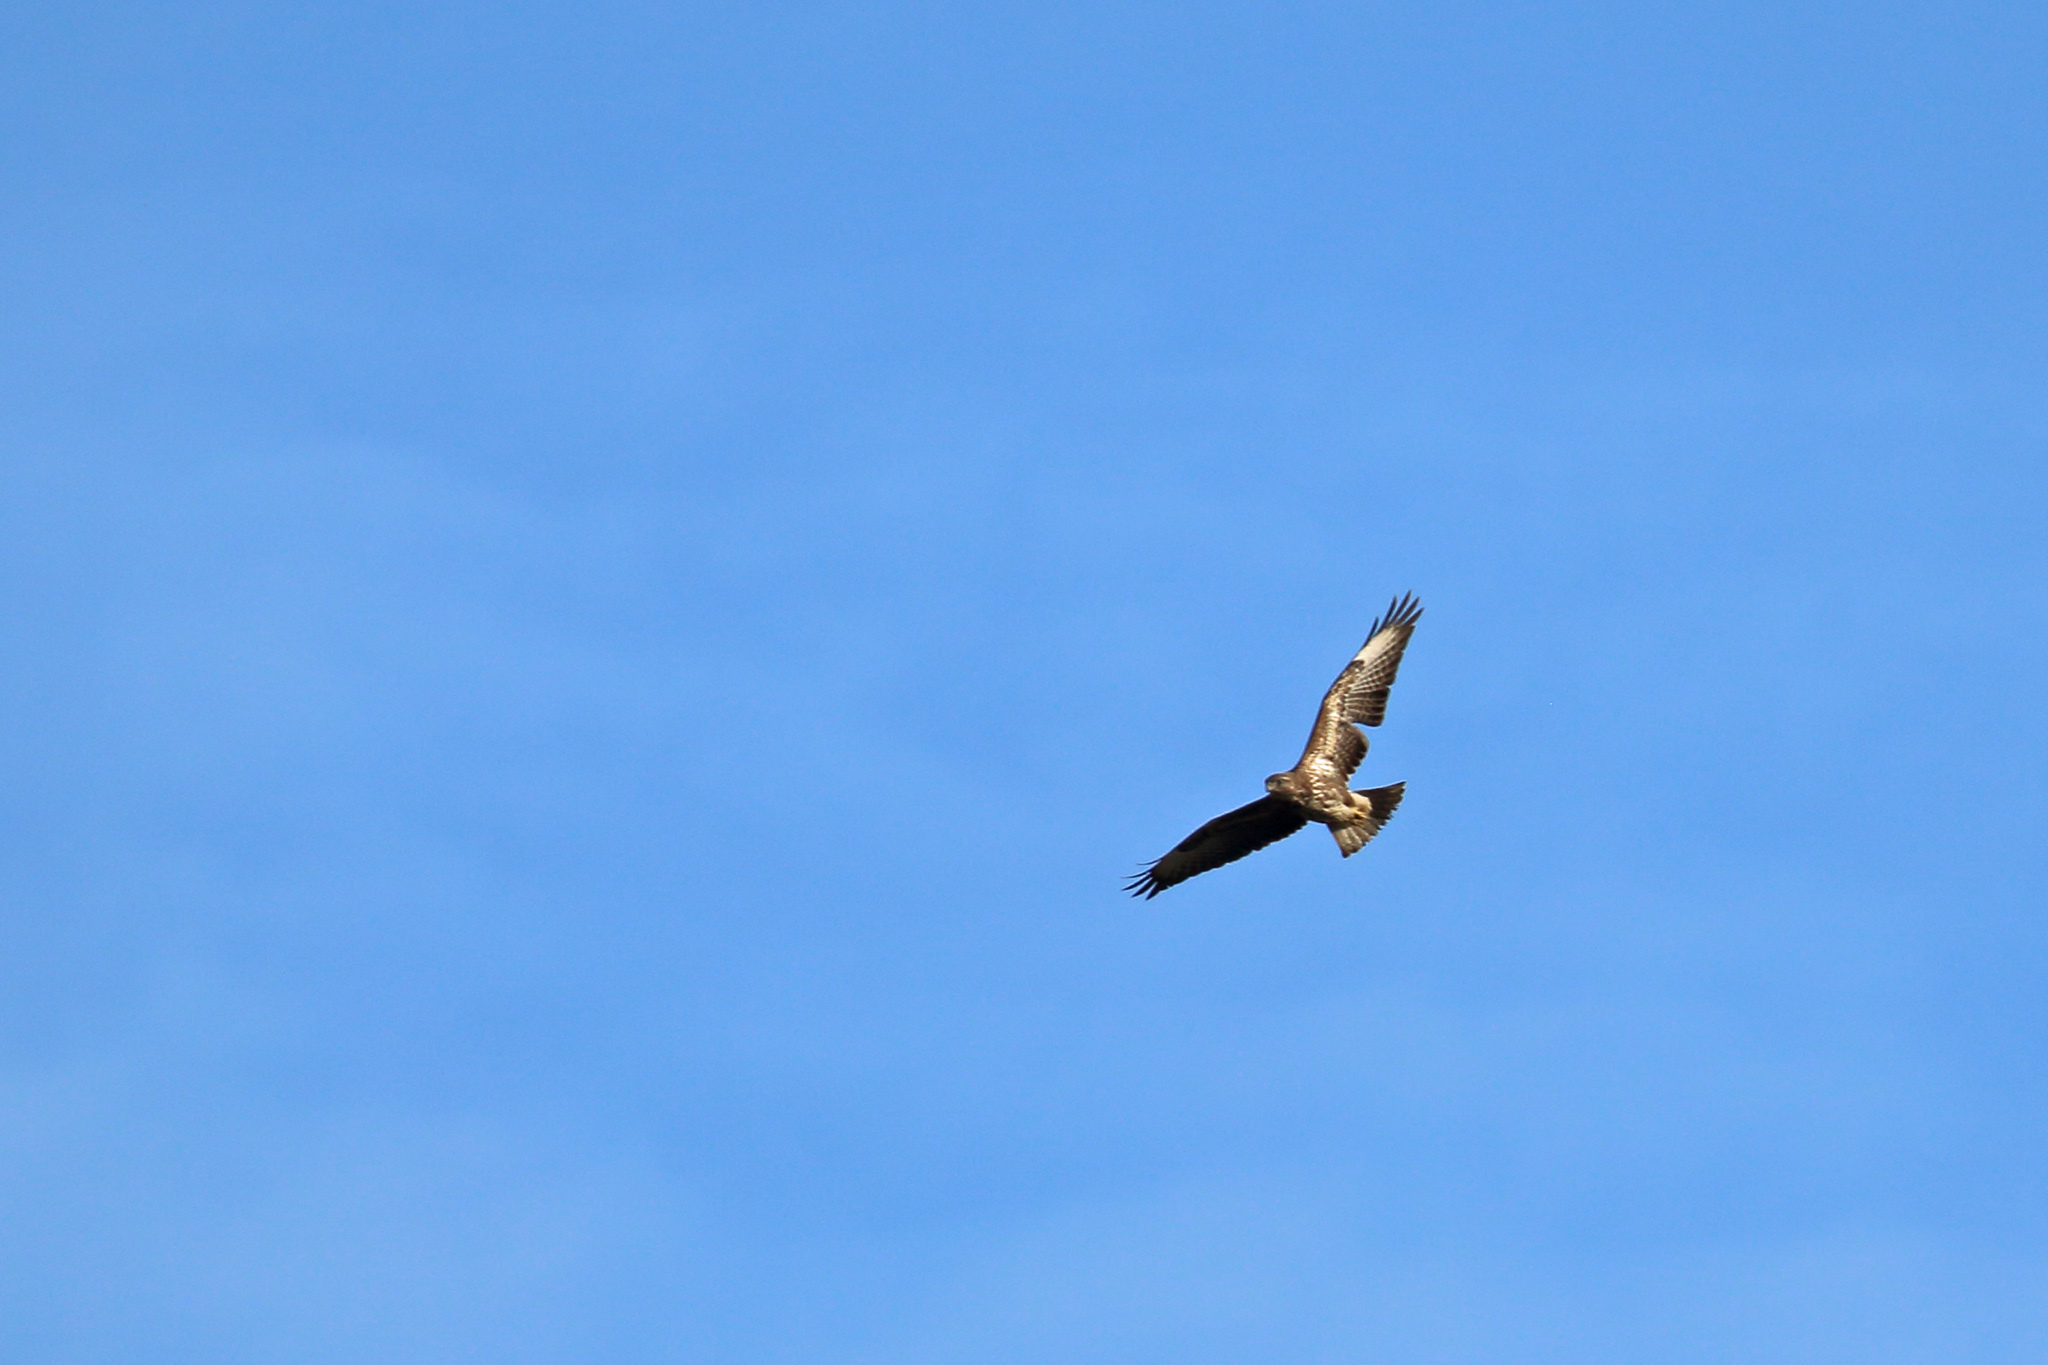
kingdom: Animalia
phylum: Chordata
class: Aves
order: Accipitriformes
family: Accipitridae
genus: Buteo
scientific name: Buteo buteo
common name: Common buzzard
